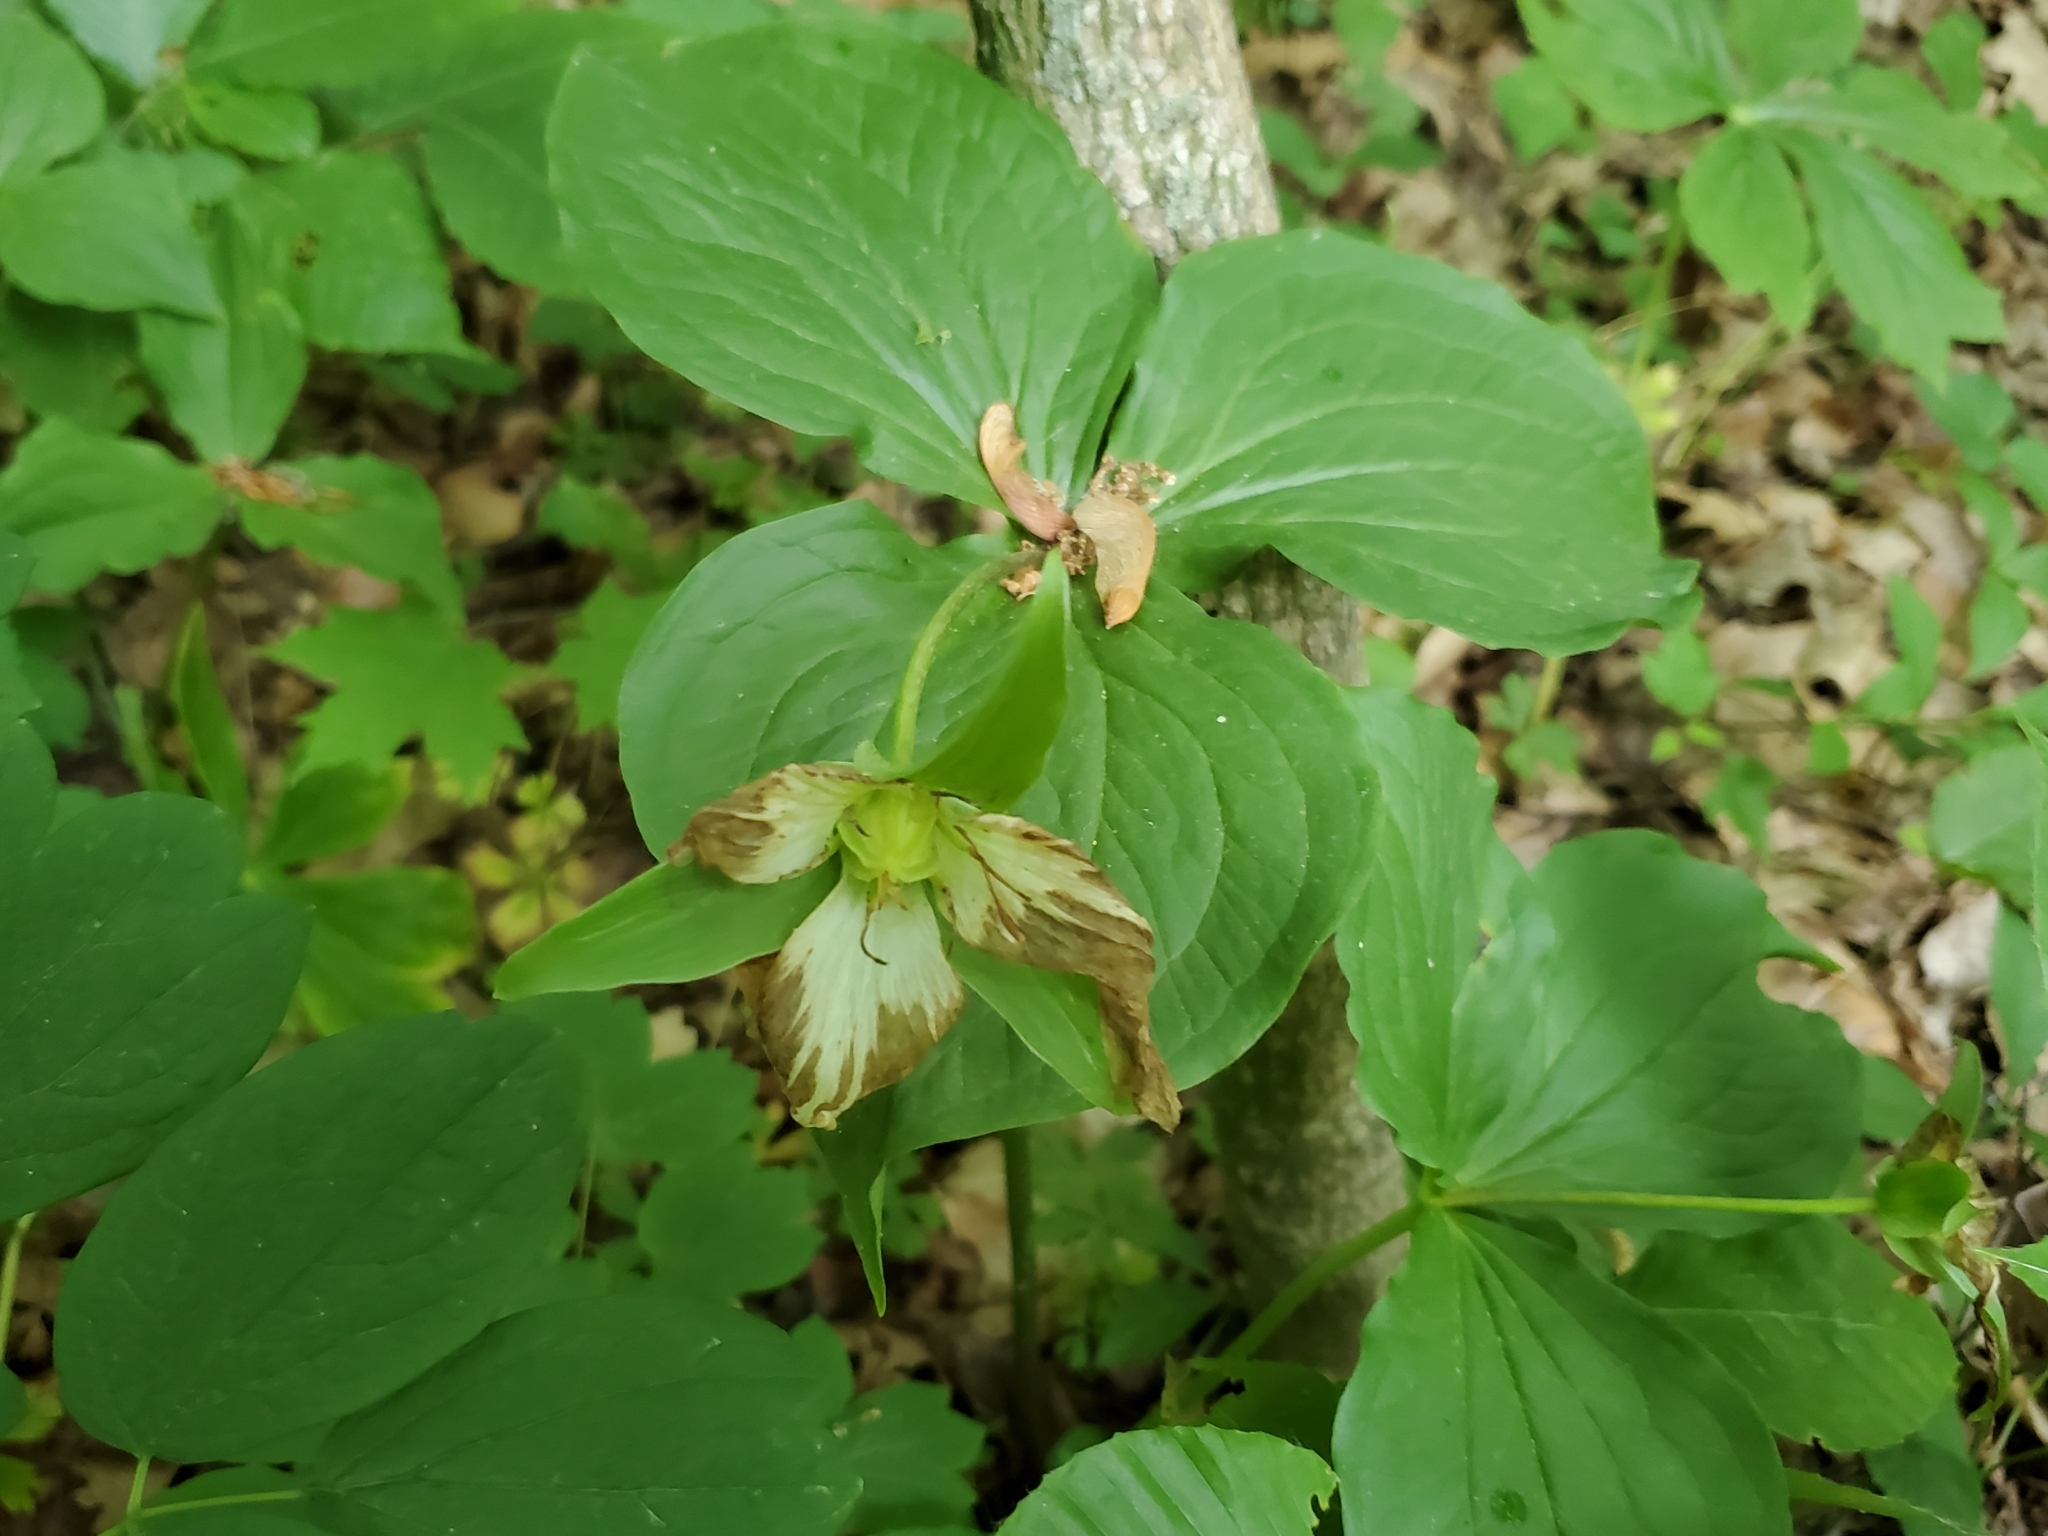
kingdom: Plantae
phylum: Tracheophyta
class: Liliopsida
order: Liliales
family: Melanthiaceae
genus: Trillium
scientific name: Trillium grandiflorum
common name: Great white trillium
